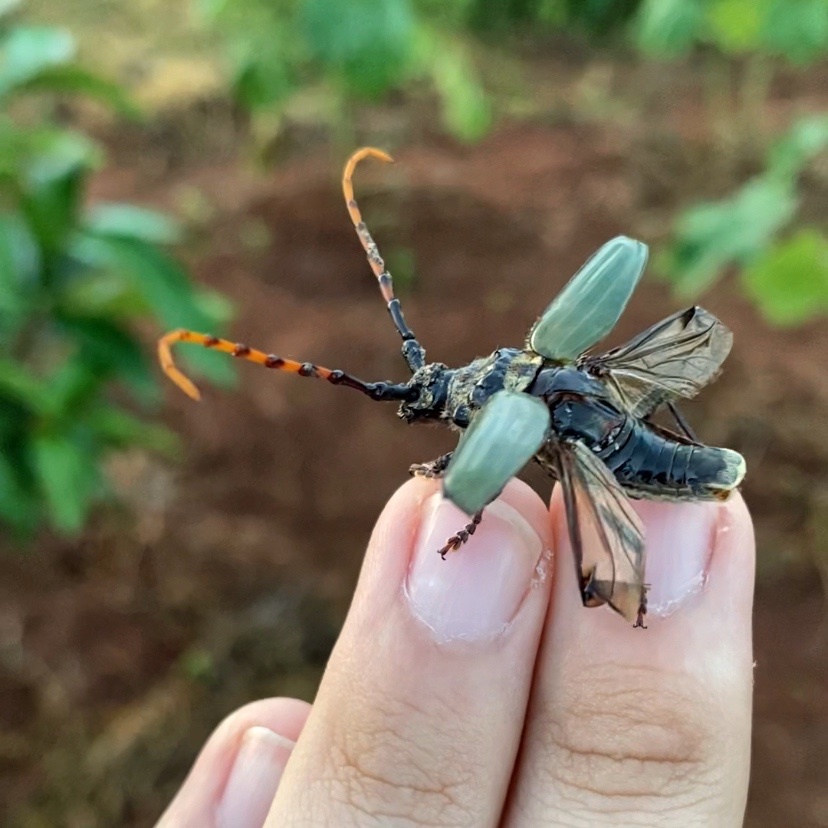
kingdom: Animalia
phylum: Arthropoda
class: Insecta
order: Coleoptera
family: Cerambycidae
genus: Retrachydes
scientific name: Retrachydes thoracicus
